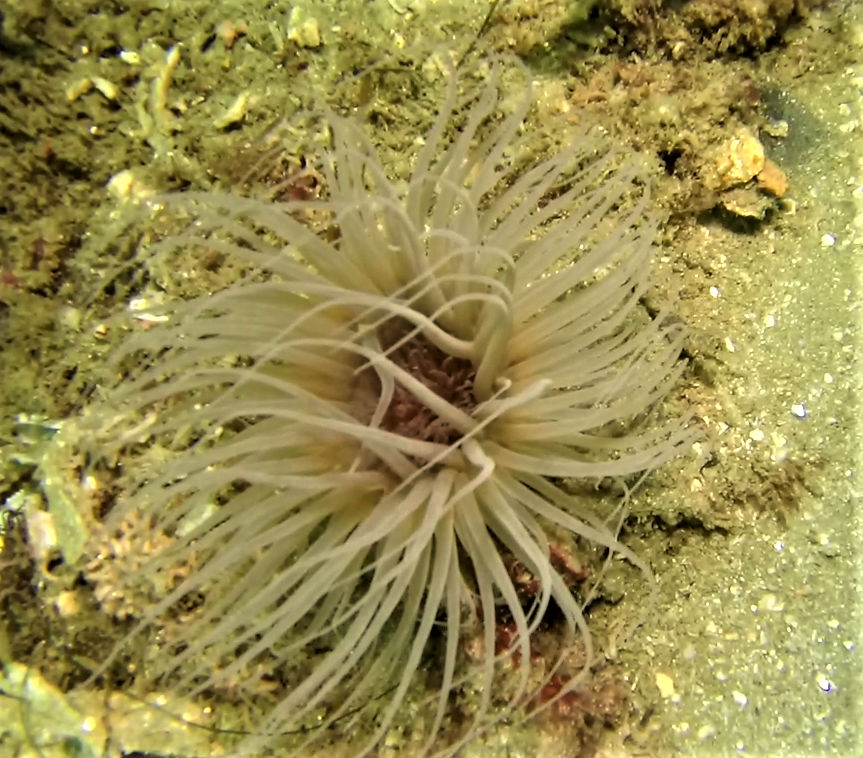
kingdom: Animalia
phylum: Cnidaria
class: Anthozoa
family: Cerianthidae
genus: Pachycerianthus
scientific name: Pachycerianthus fimbriatus
